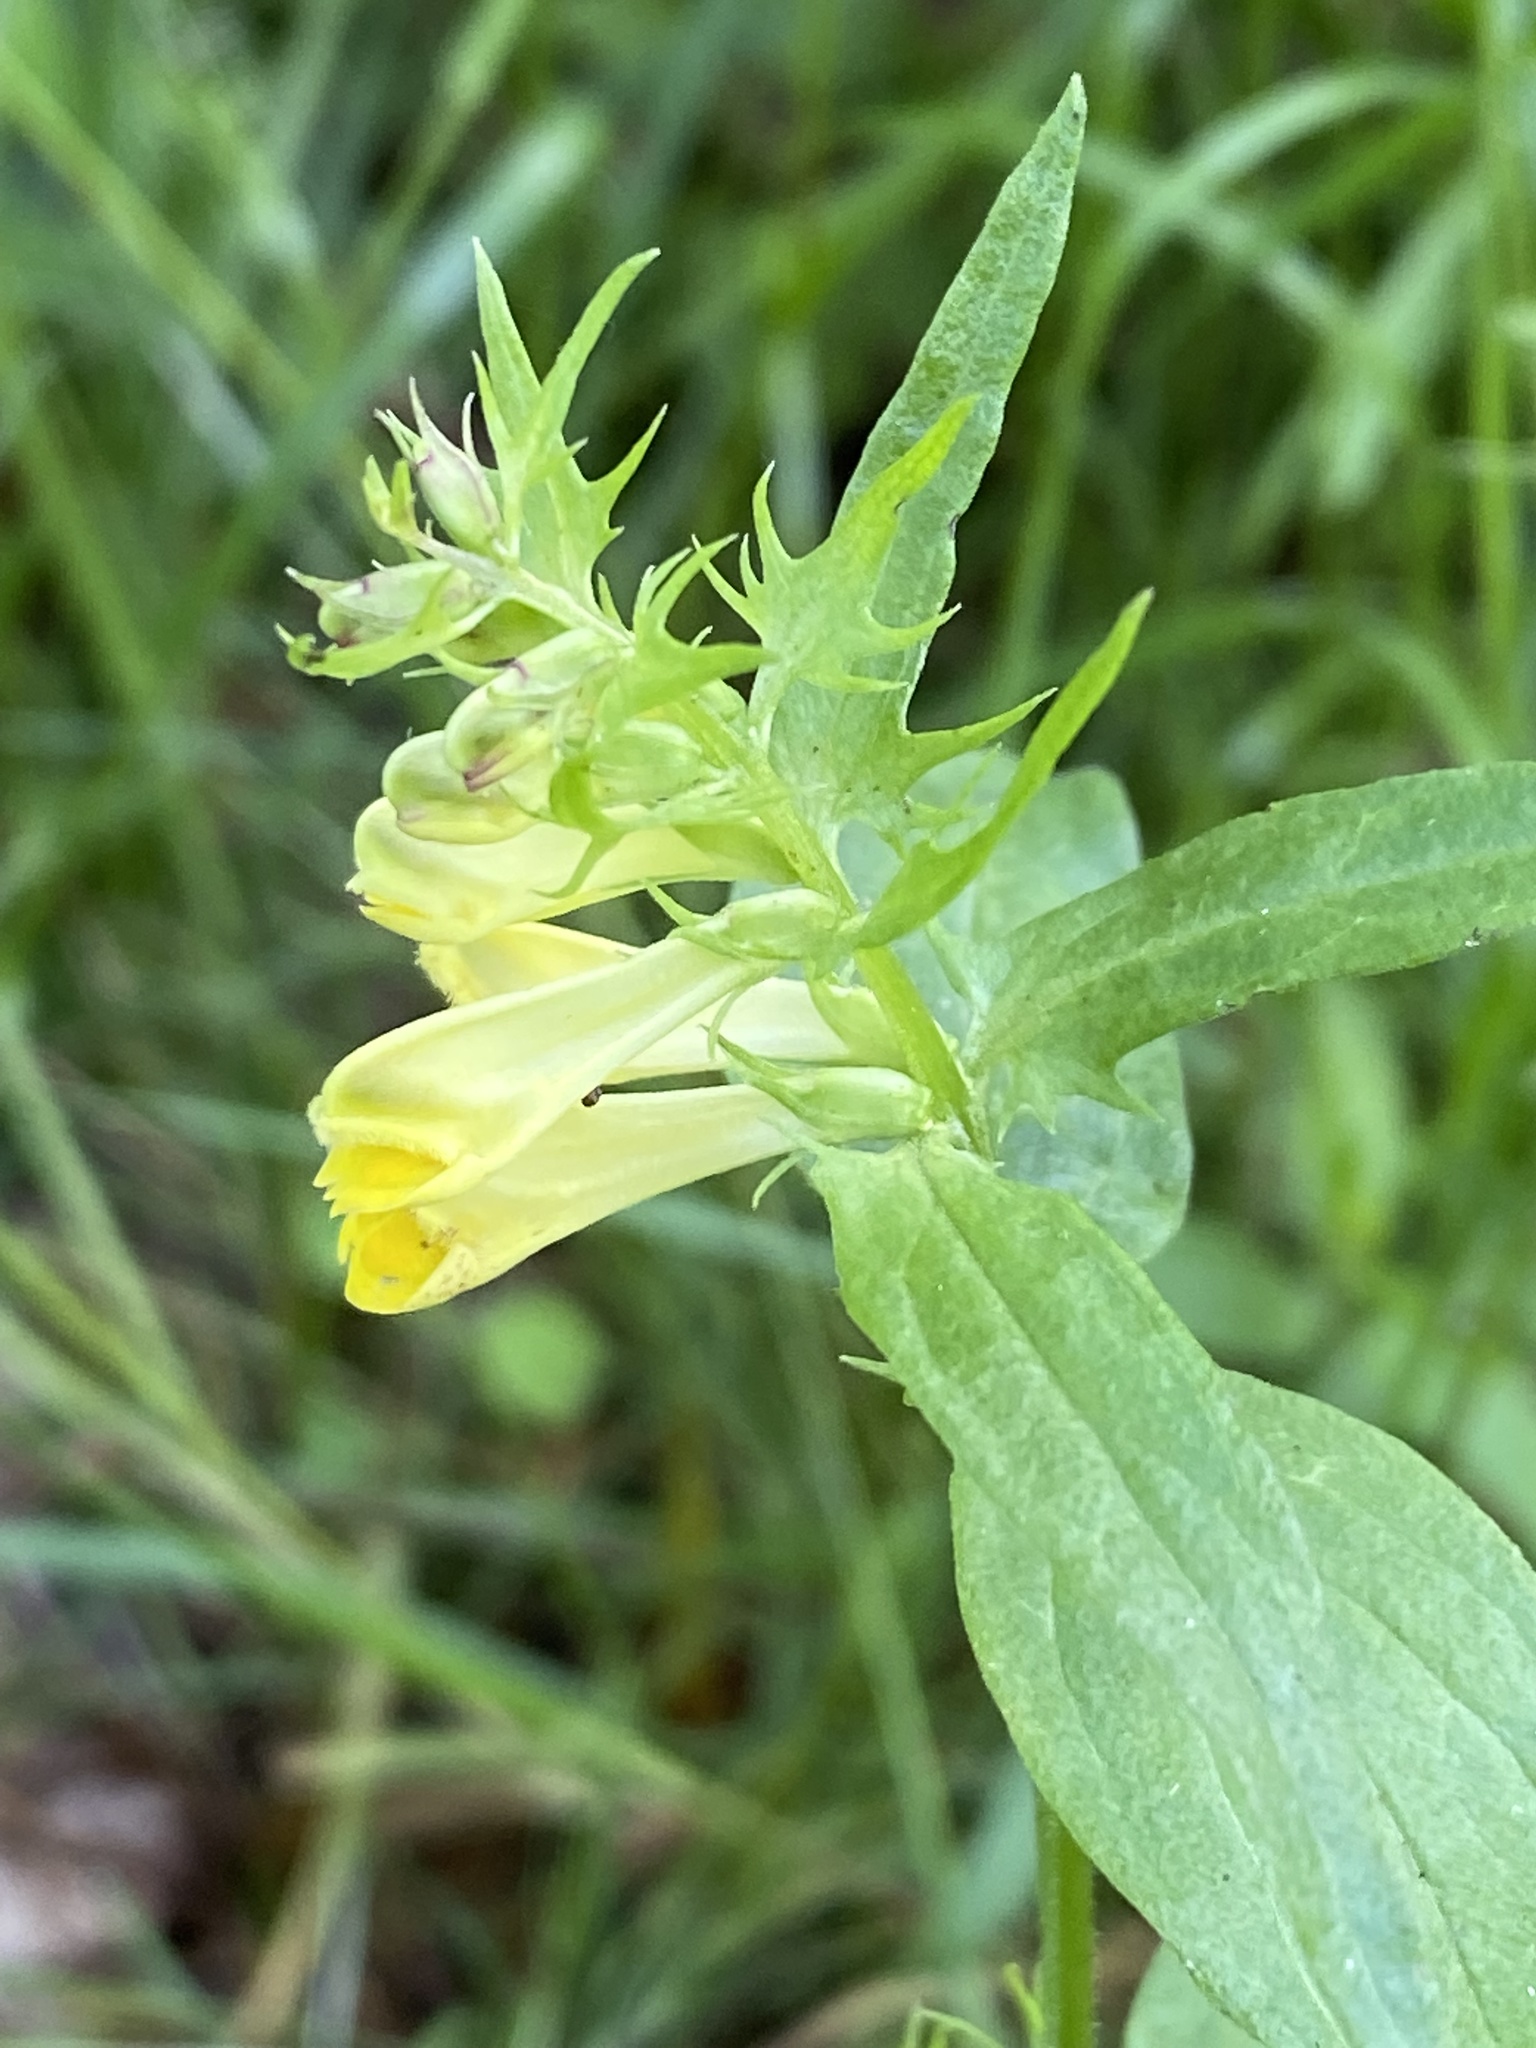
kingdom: Plantae
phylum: Tracheophyta
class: Magnoliopsida
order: Lamiales
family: Orobanchaceae
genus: Melampyrum
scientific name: Melampyrum pratense
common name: Common cow-wheat
